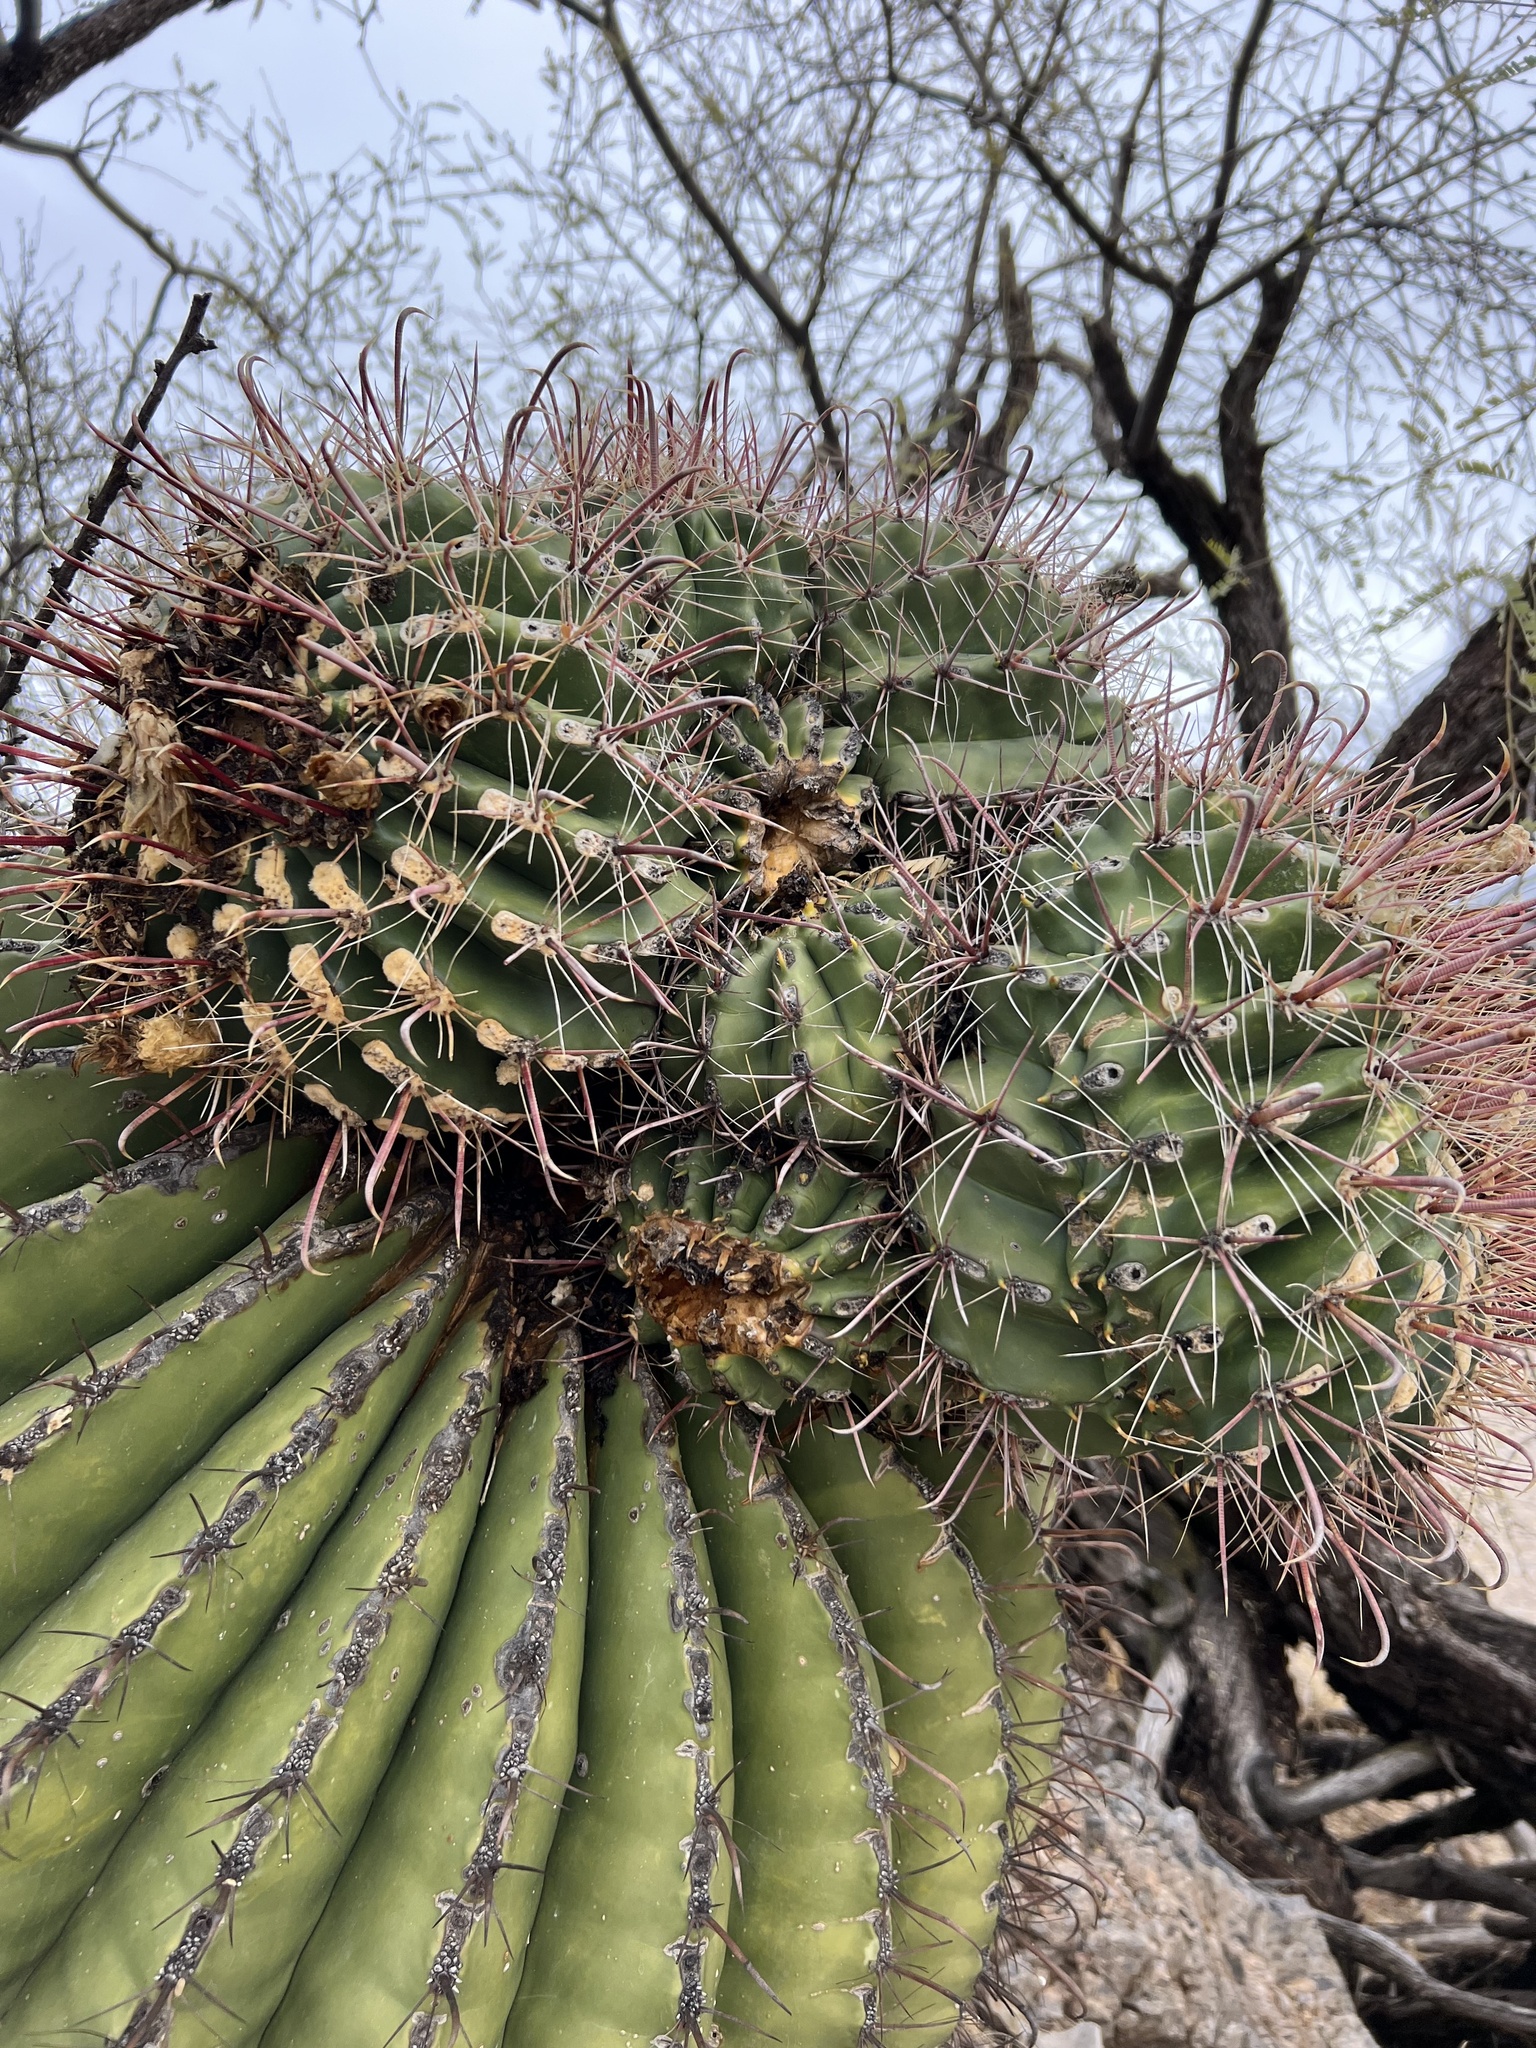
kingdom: Plantae
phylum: Tracheophyta
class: Magnoliopsida
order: Caryophyllales
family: Cactaceae
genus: Ferocactus
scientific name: Ferocactus wislizeni
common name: Candy barrel cactus
